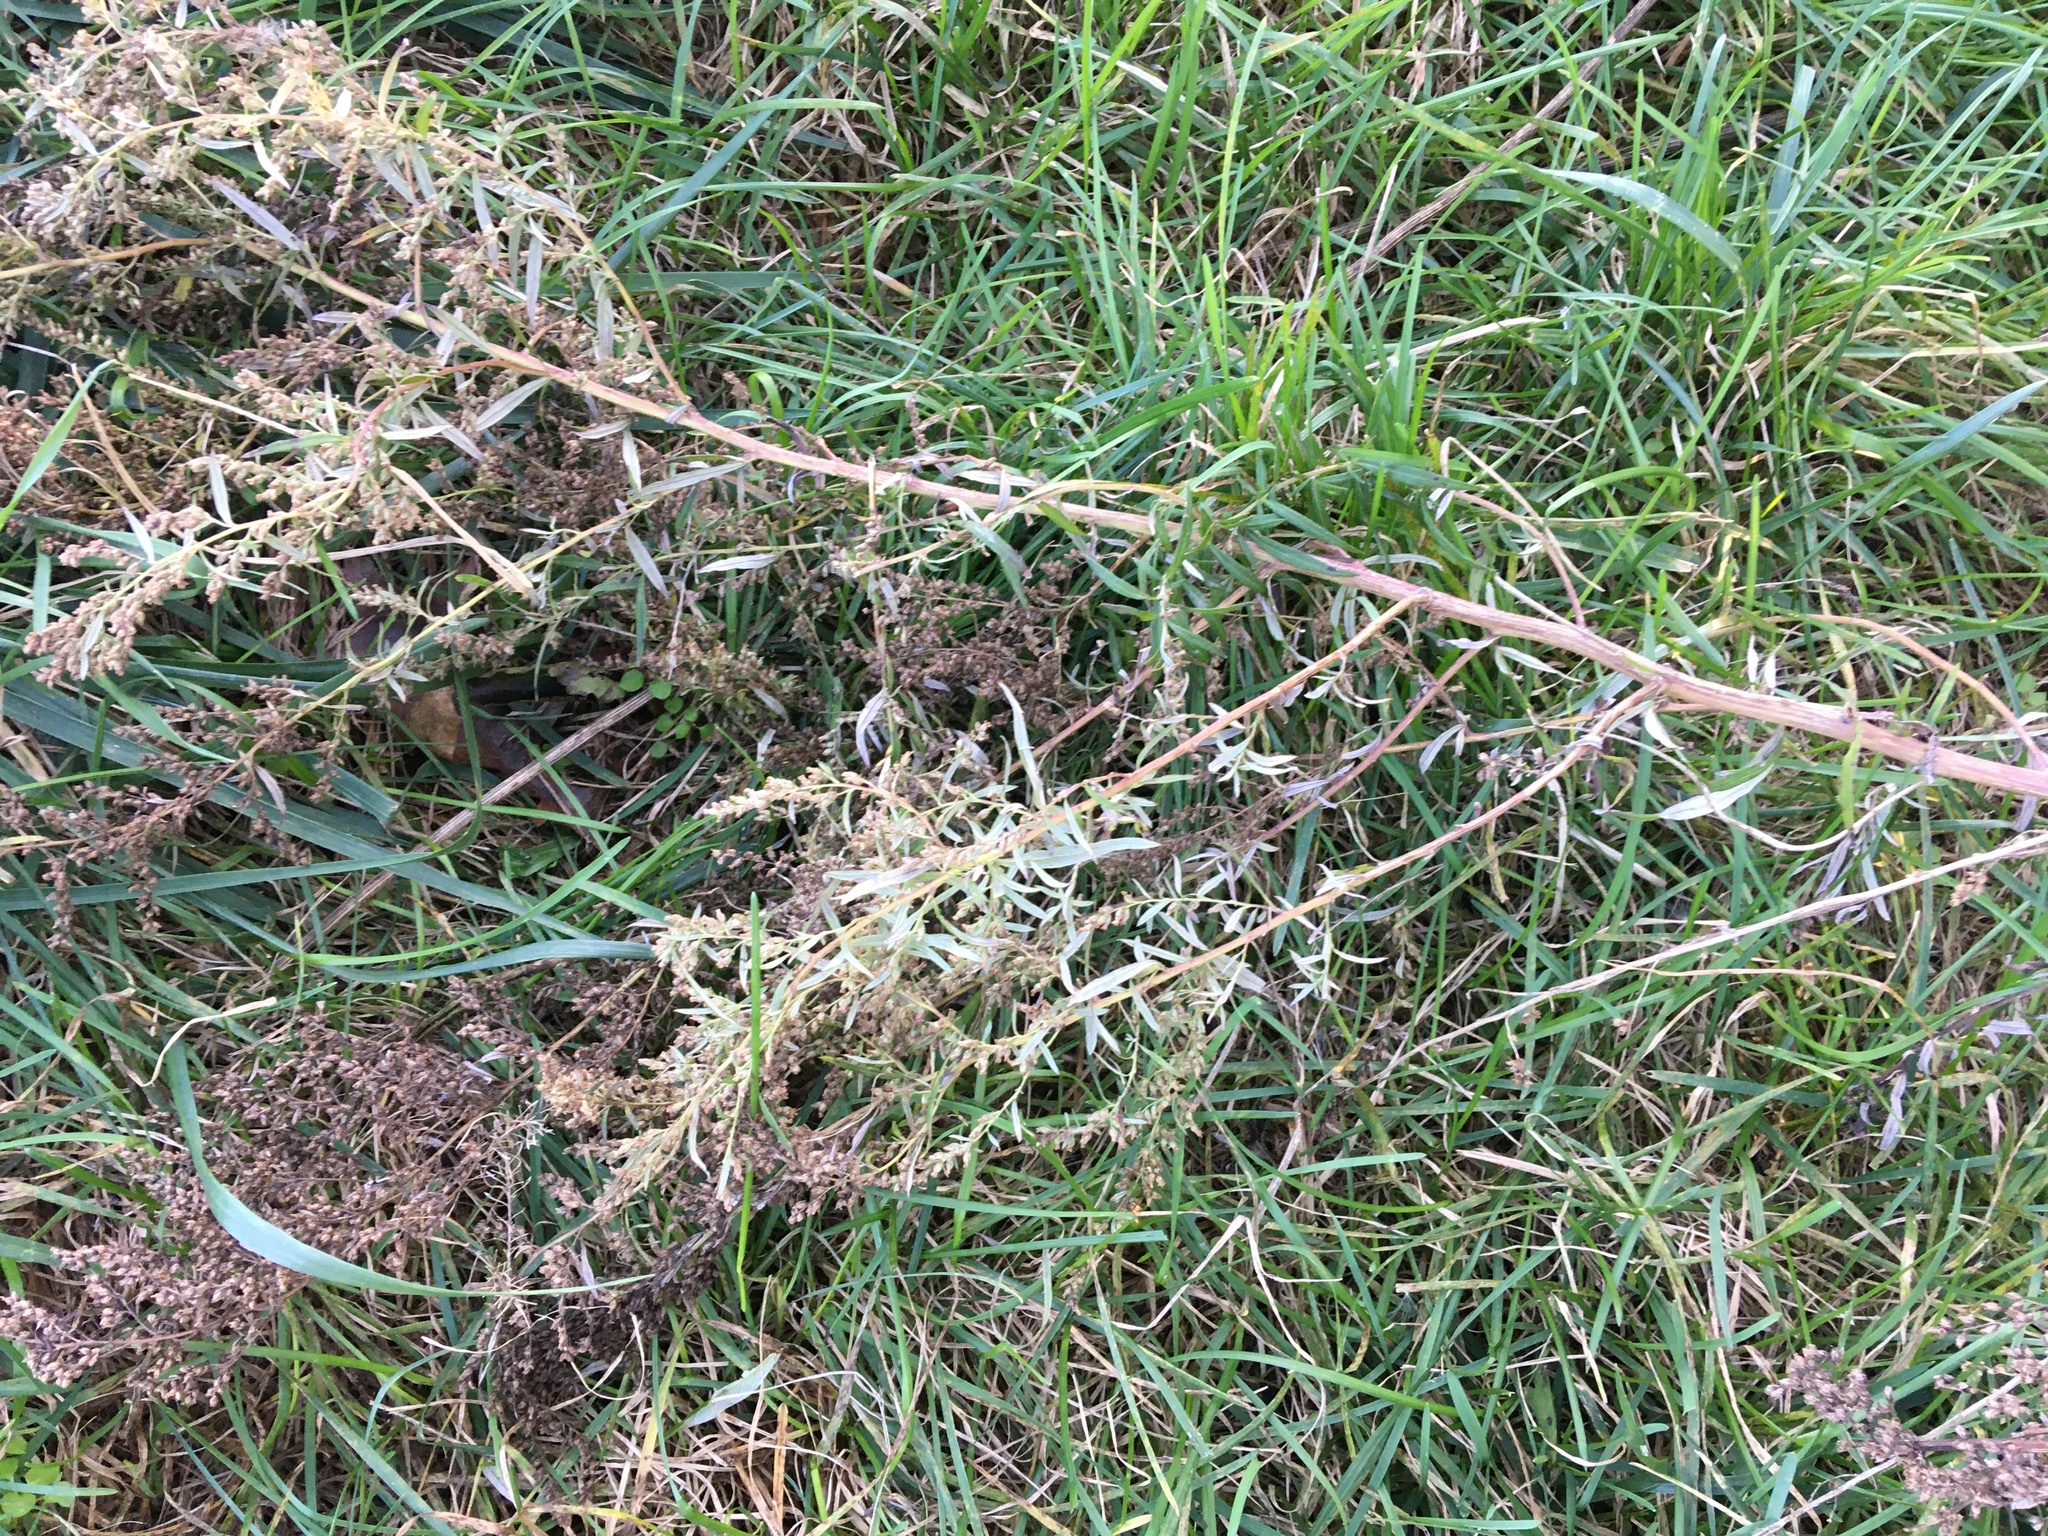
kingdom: Plantae
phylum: Tracheophyta
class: Magnoliopsida
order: Asterales
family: Asteraceae
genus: Artemisia
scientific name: Artemisia vulgaris
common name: Mugwort
